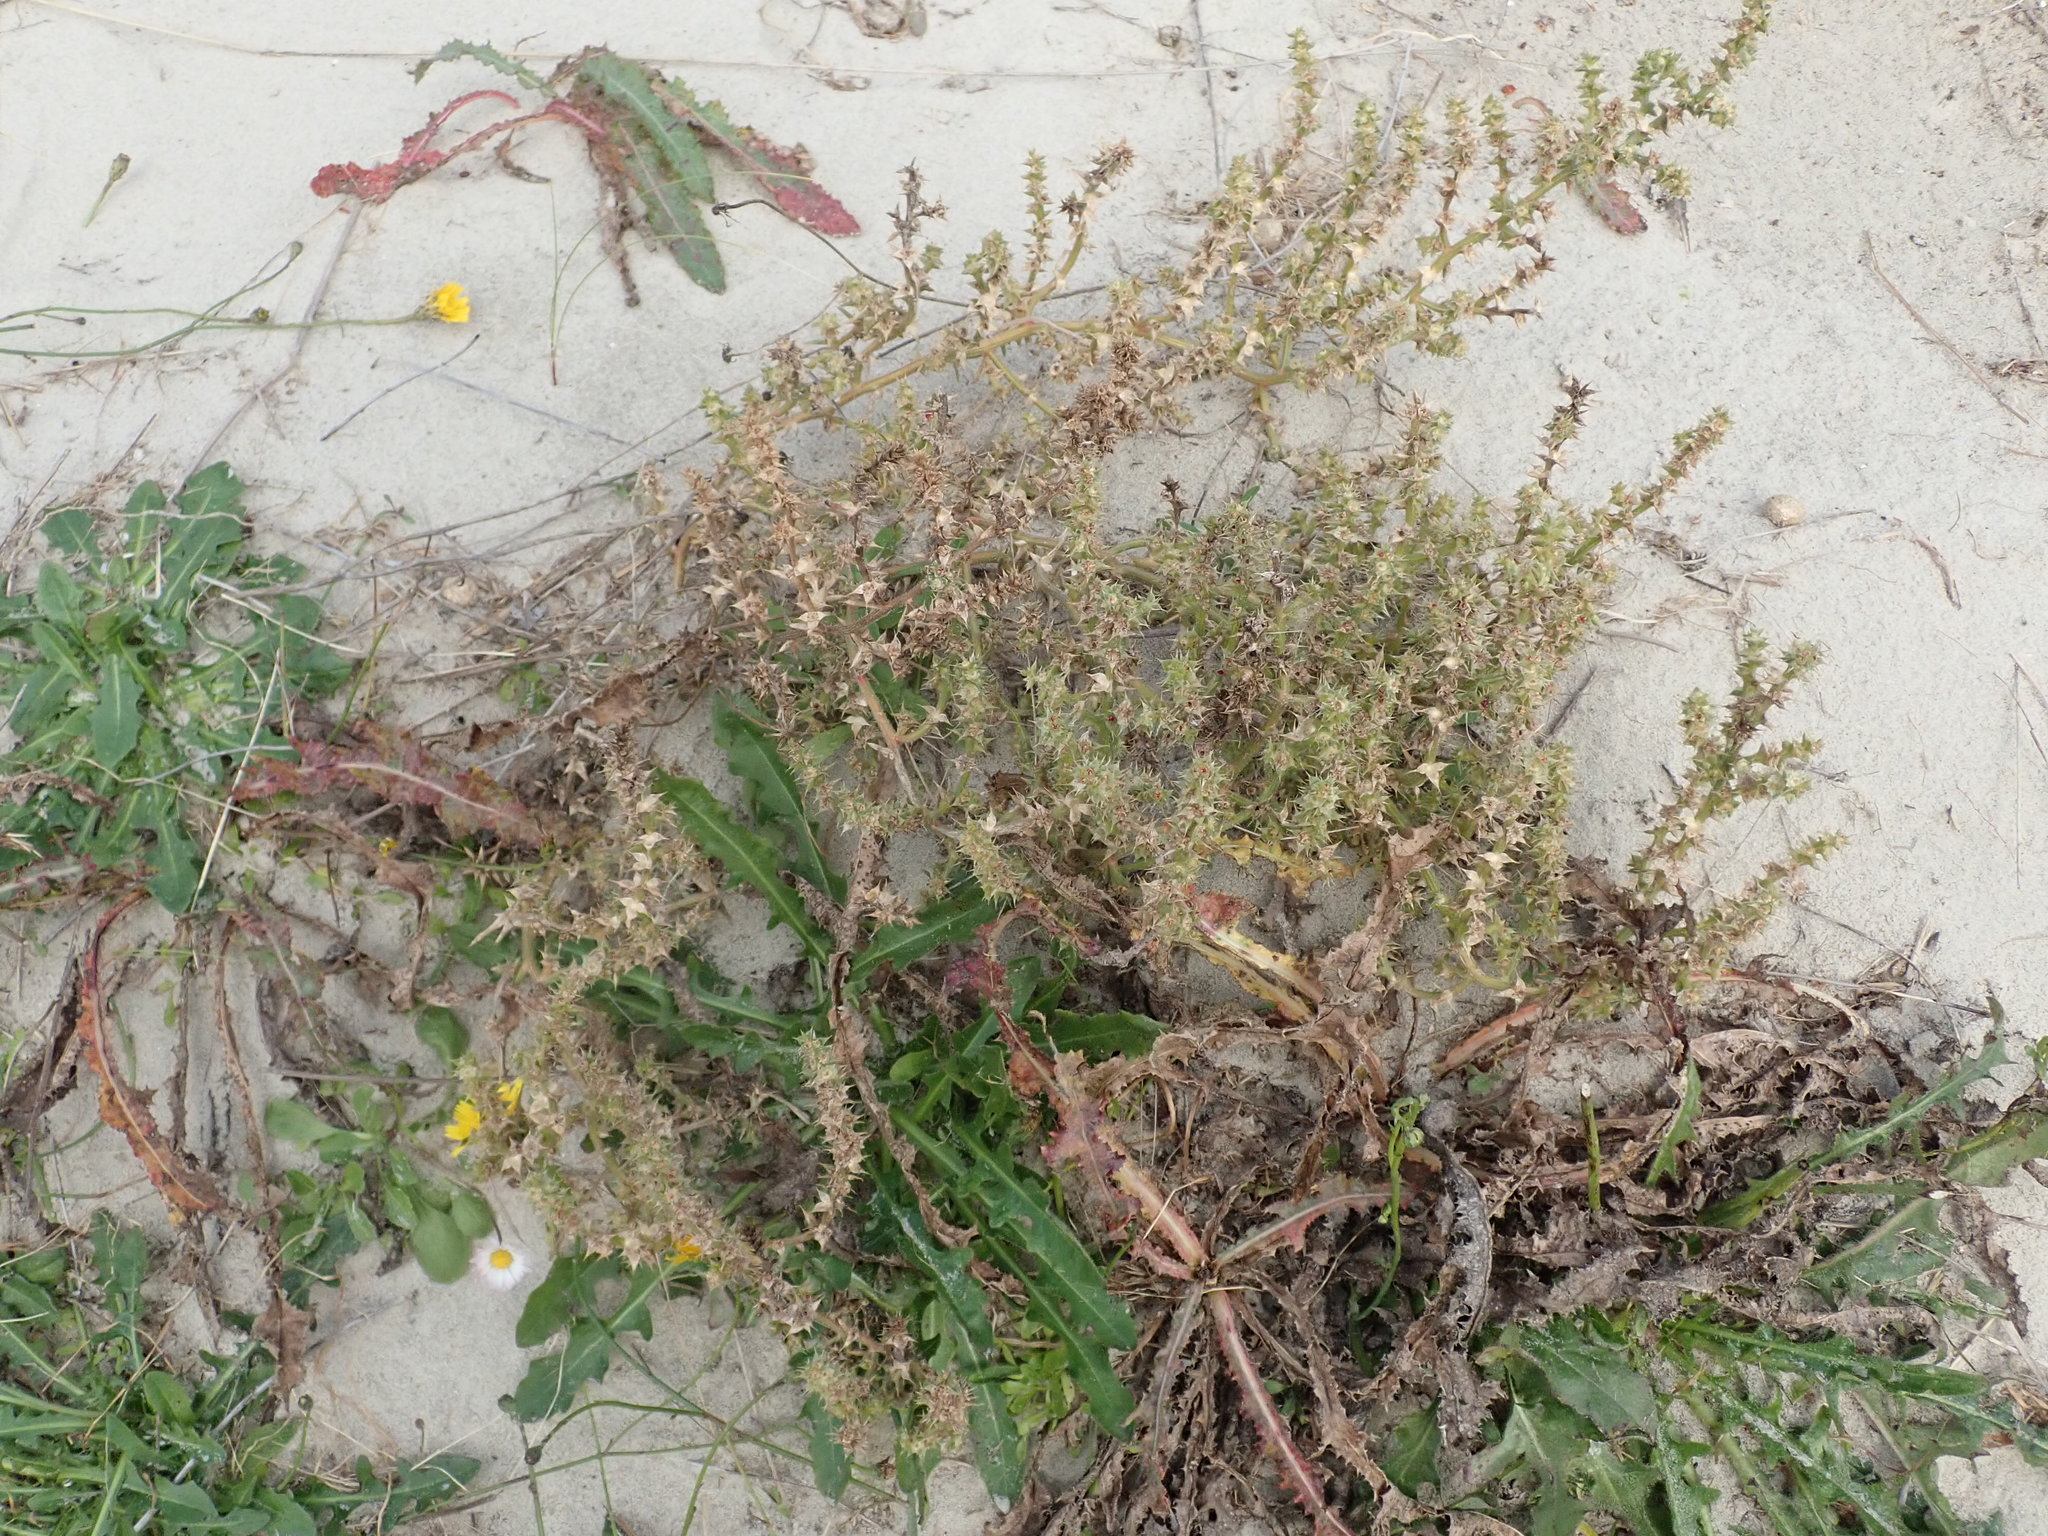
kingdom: Plantae
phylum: Tracheophyta
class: Magnoliopsida
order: Caryophyllales
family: Amaranthaceae
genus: Salsola
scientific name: Salsola kali
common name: Saltwort
